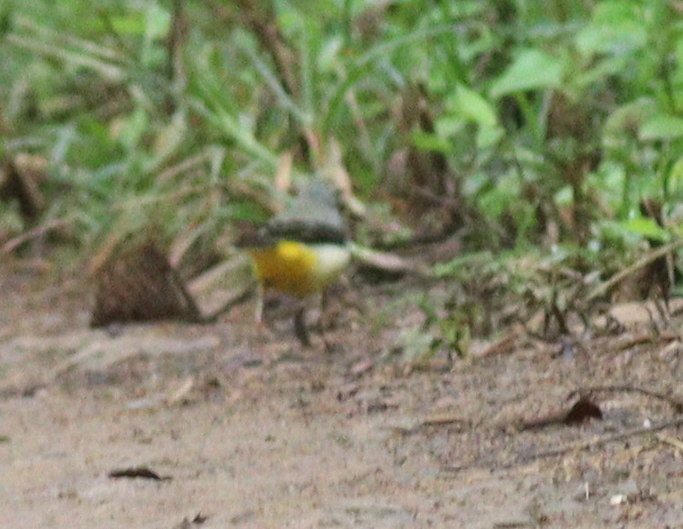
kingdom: Animalia
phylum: Chordata
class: Aves
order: Passeriformes
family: Motacillidae
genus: Motacilla
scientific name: Motacilla cinerea
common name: Grey wagtail
